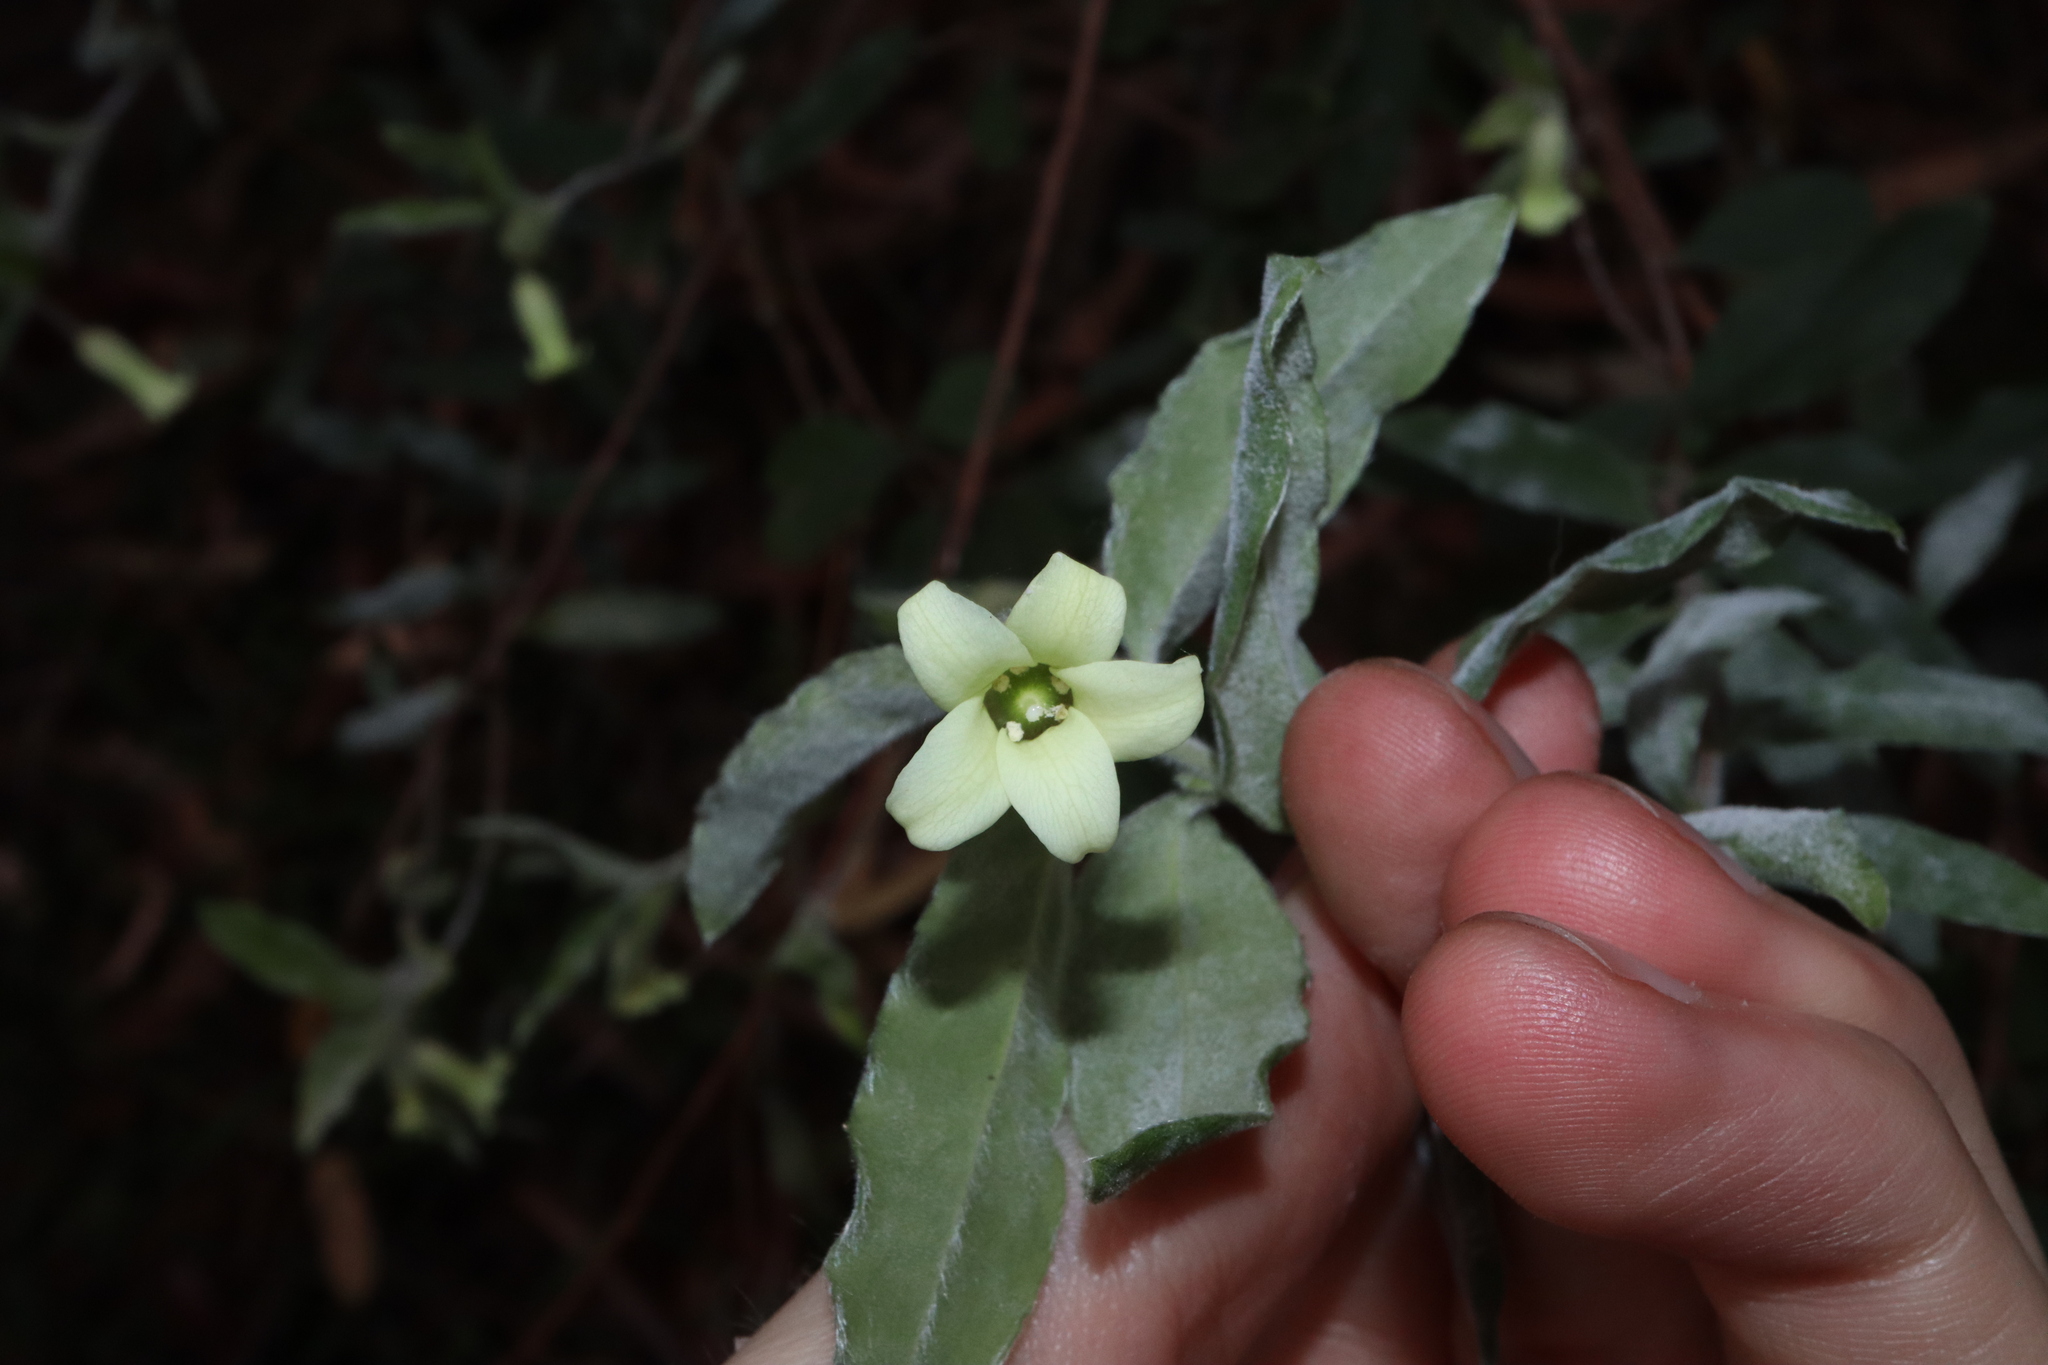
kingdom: Plantae
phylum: Tracheophyta
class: Magnoliopsida
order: Apiales
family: Pittosporaceae
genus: Billardiera
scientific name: Billardiera scandens
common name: Apple-berry
